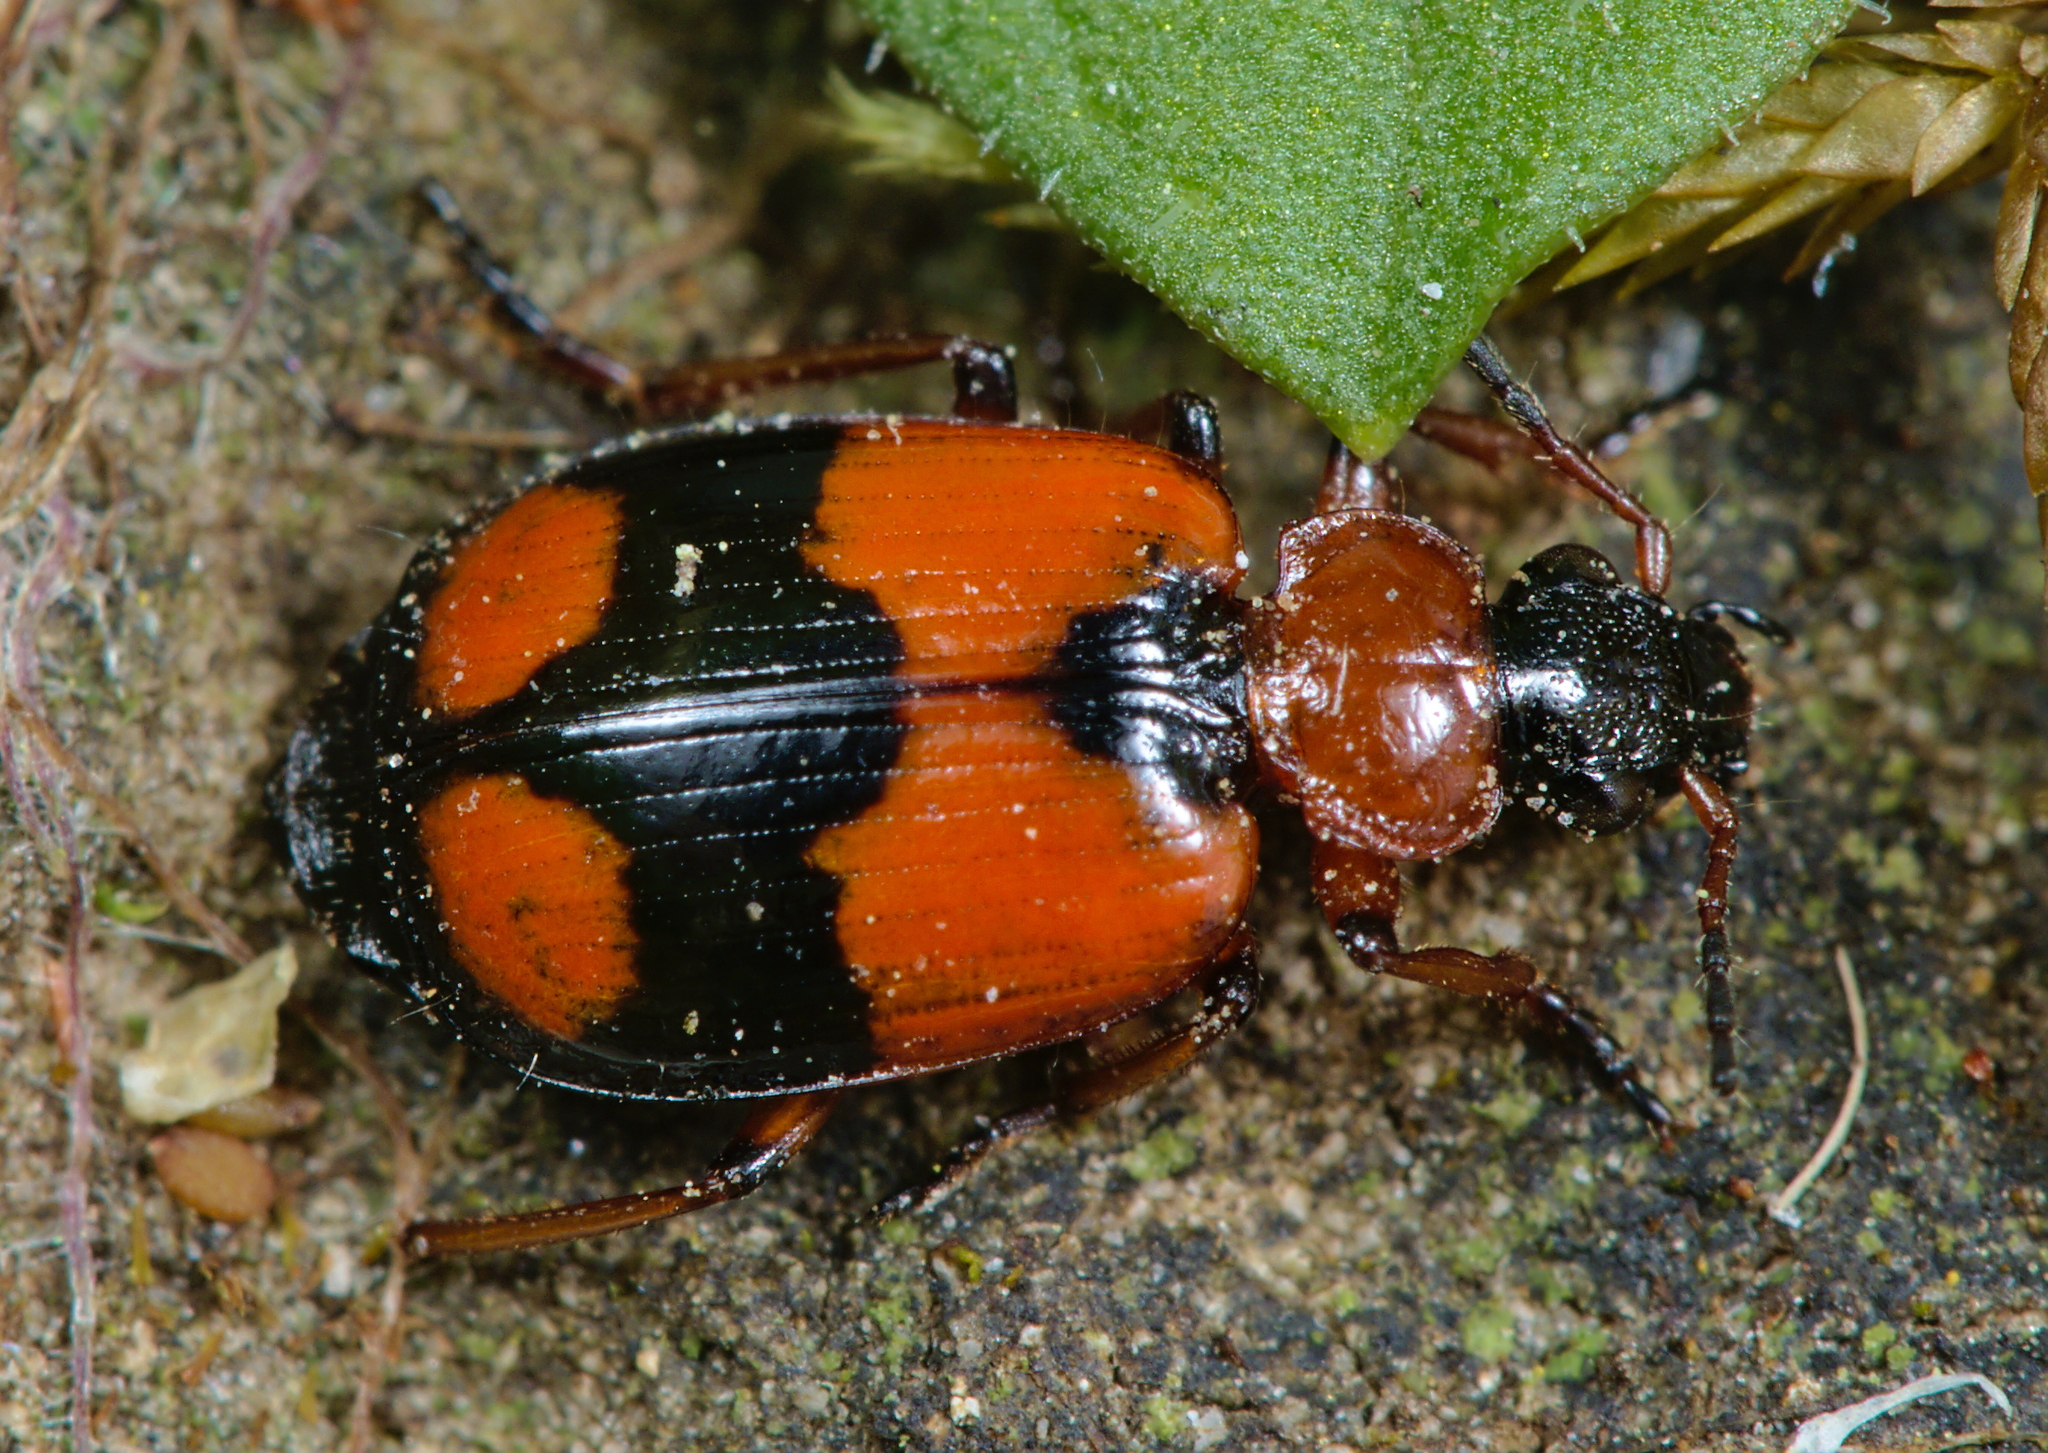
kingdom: Animalia
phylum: Arthropoda
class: Insecta
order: Coleoptera
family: Carabidae
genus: Lebia
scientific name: Lebia cruxminor
